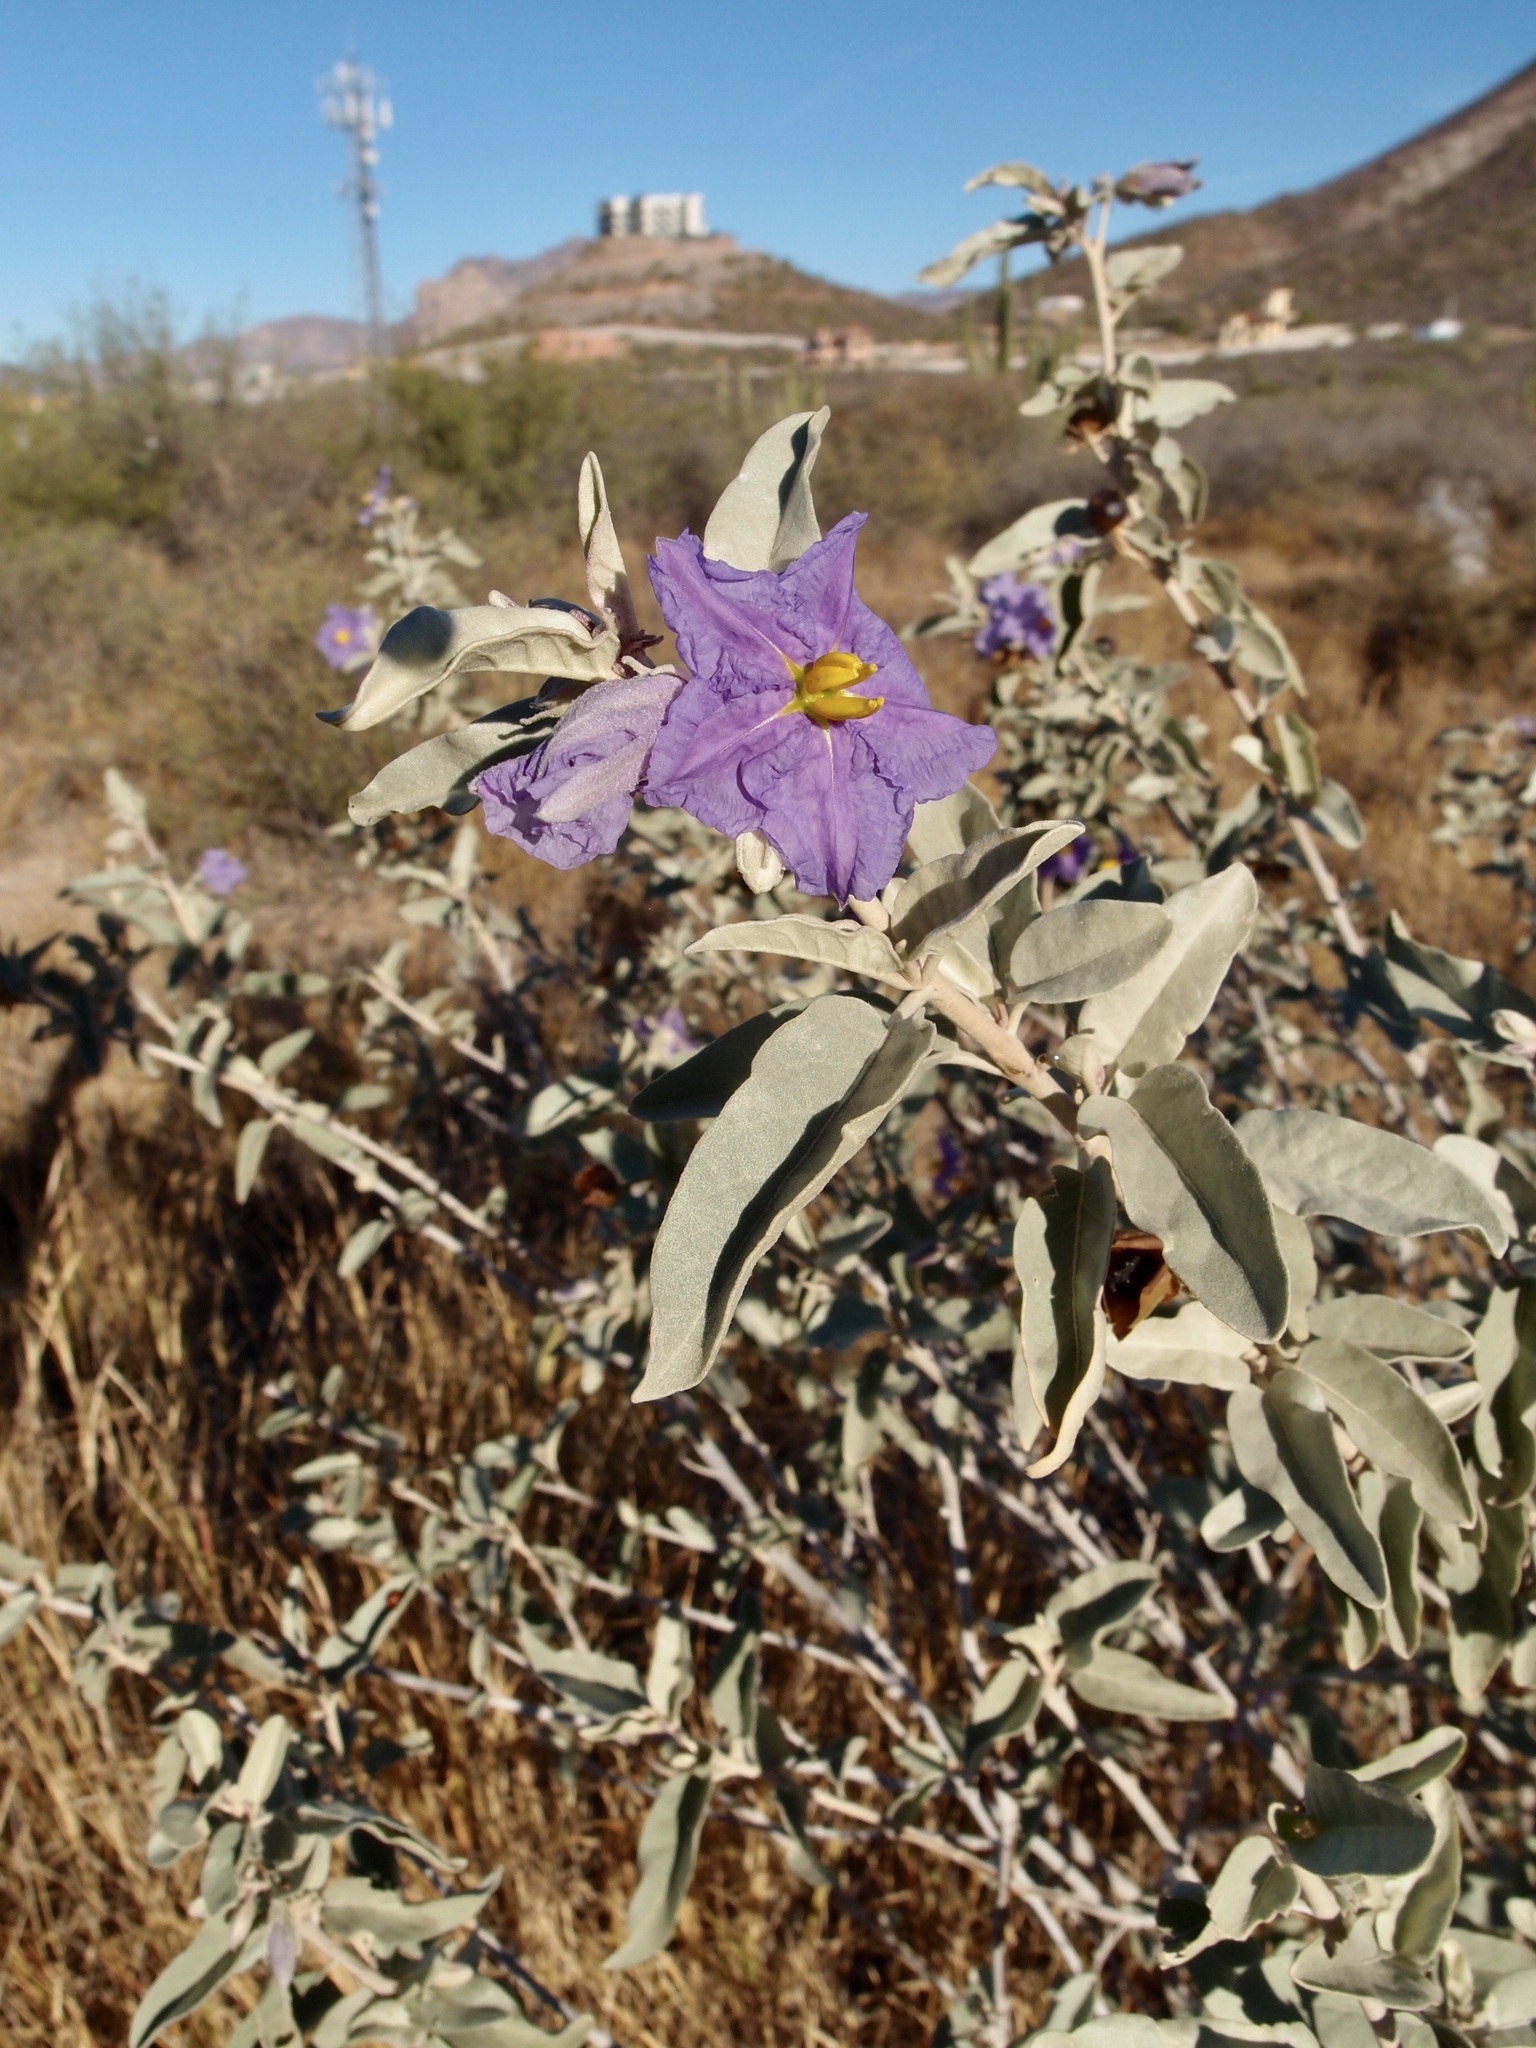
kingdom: Plantae
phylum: Tracheophyta
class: Magnoliopsida
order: Solanales
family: Solanaceae
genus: Solanum
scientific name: Solanum hindsianum
